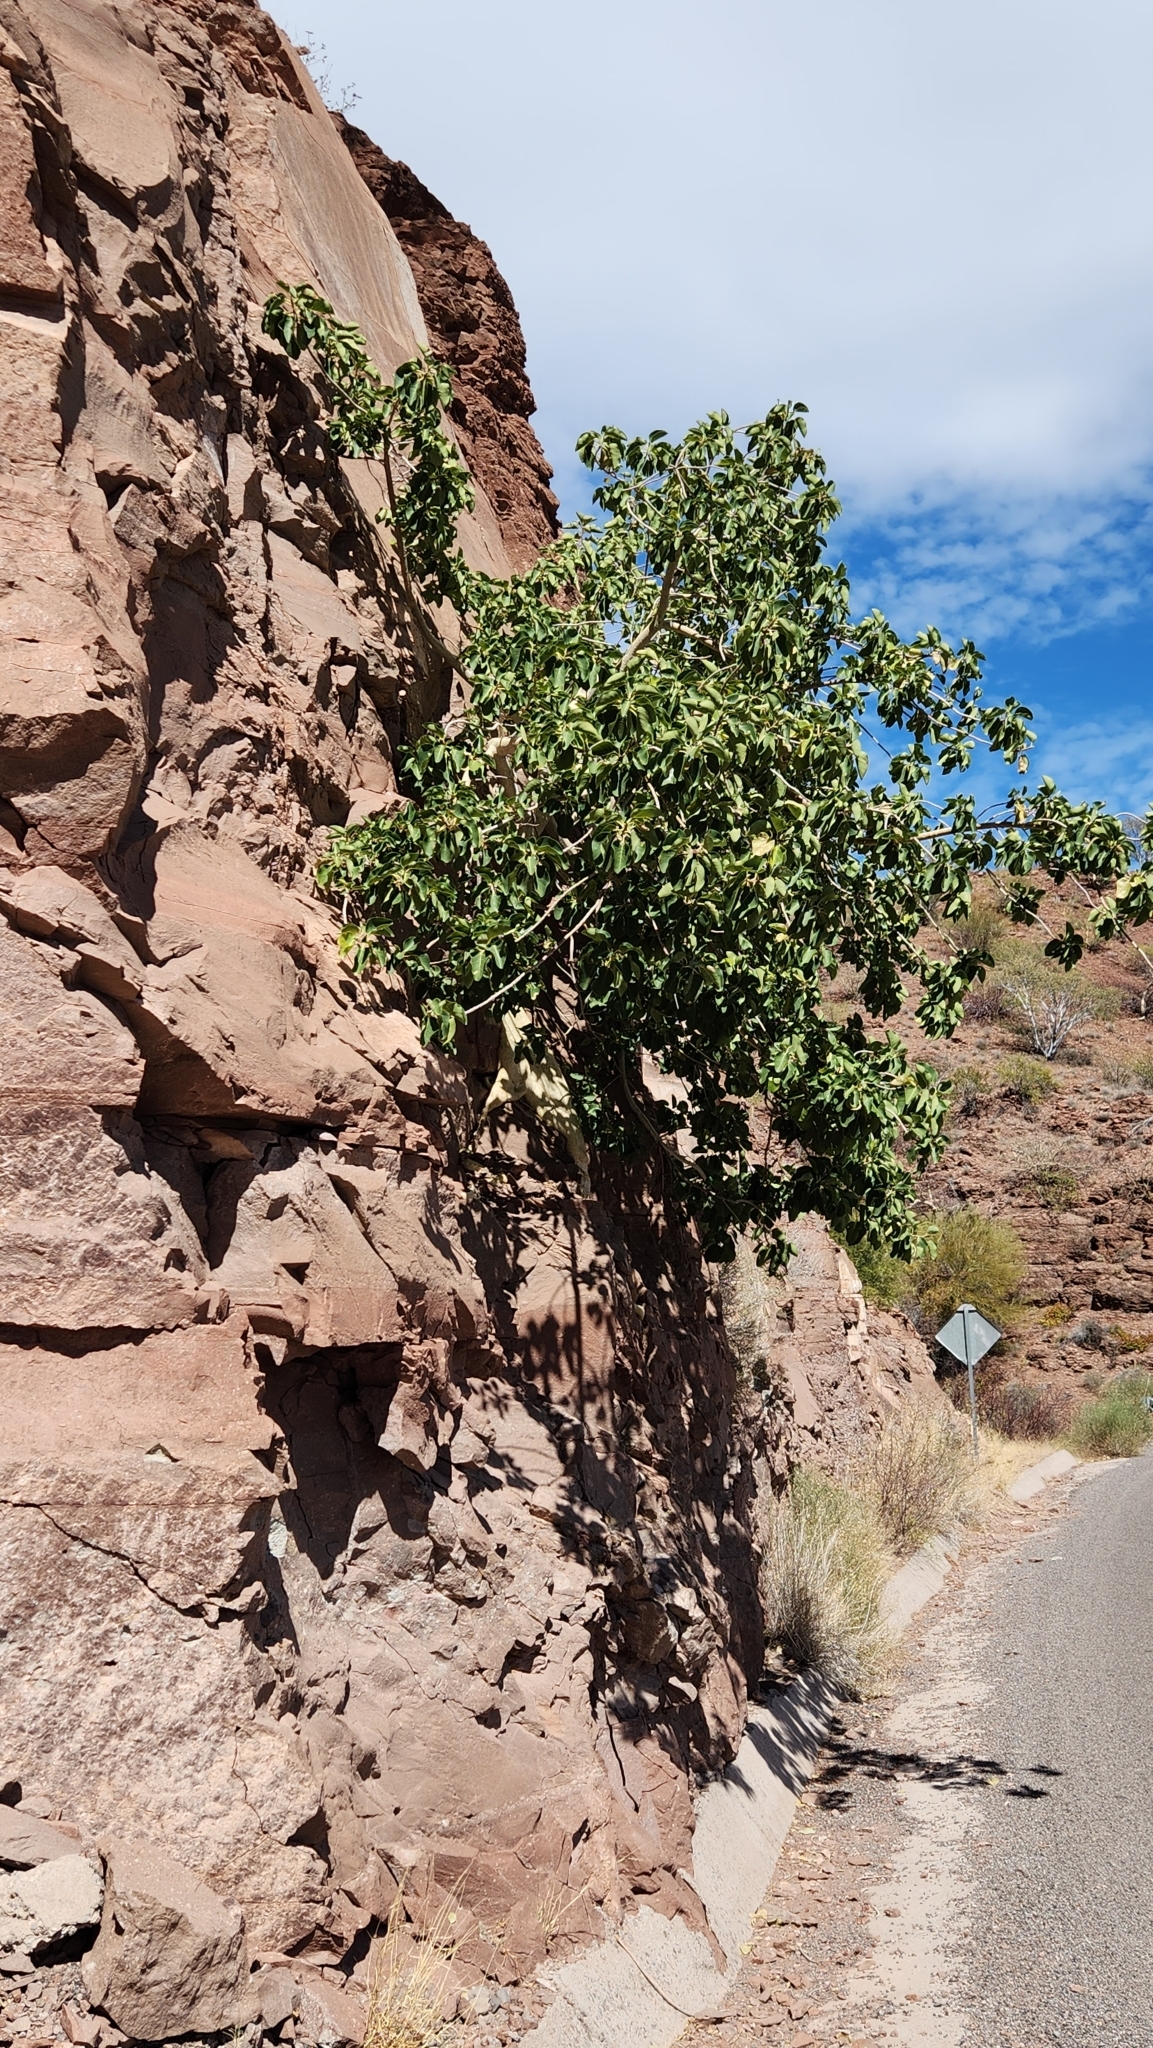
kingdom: Plantae
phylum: Tracheophyta
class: Magnoliopsida
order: Rosales
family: Moraceae
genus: Ficus
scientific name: Ficus petiolaris
